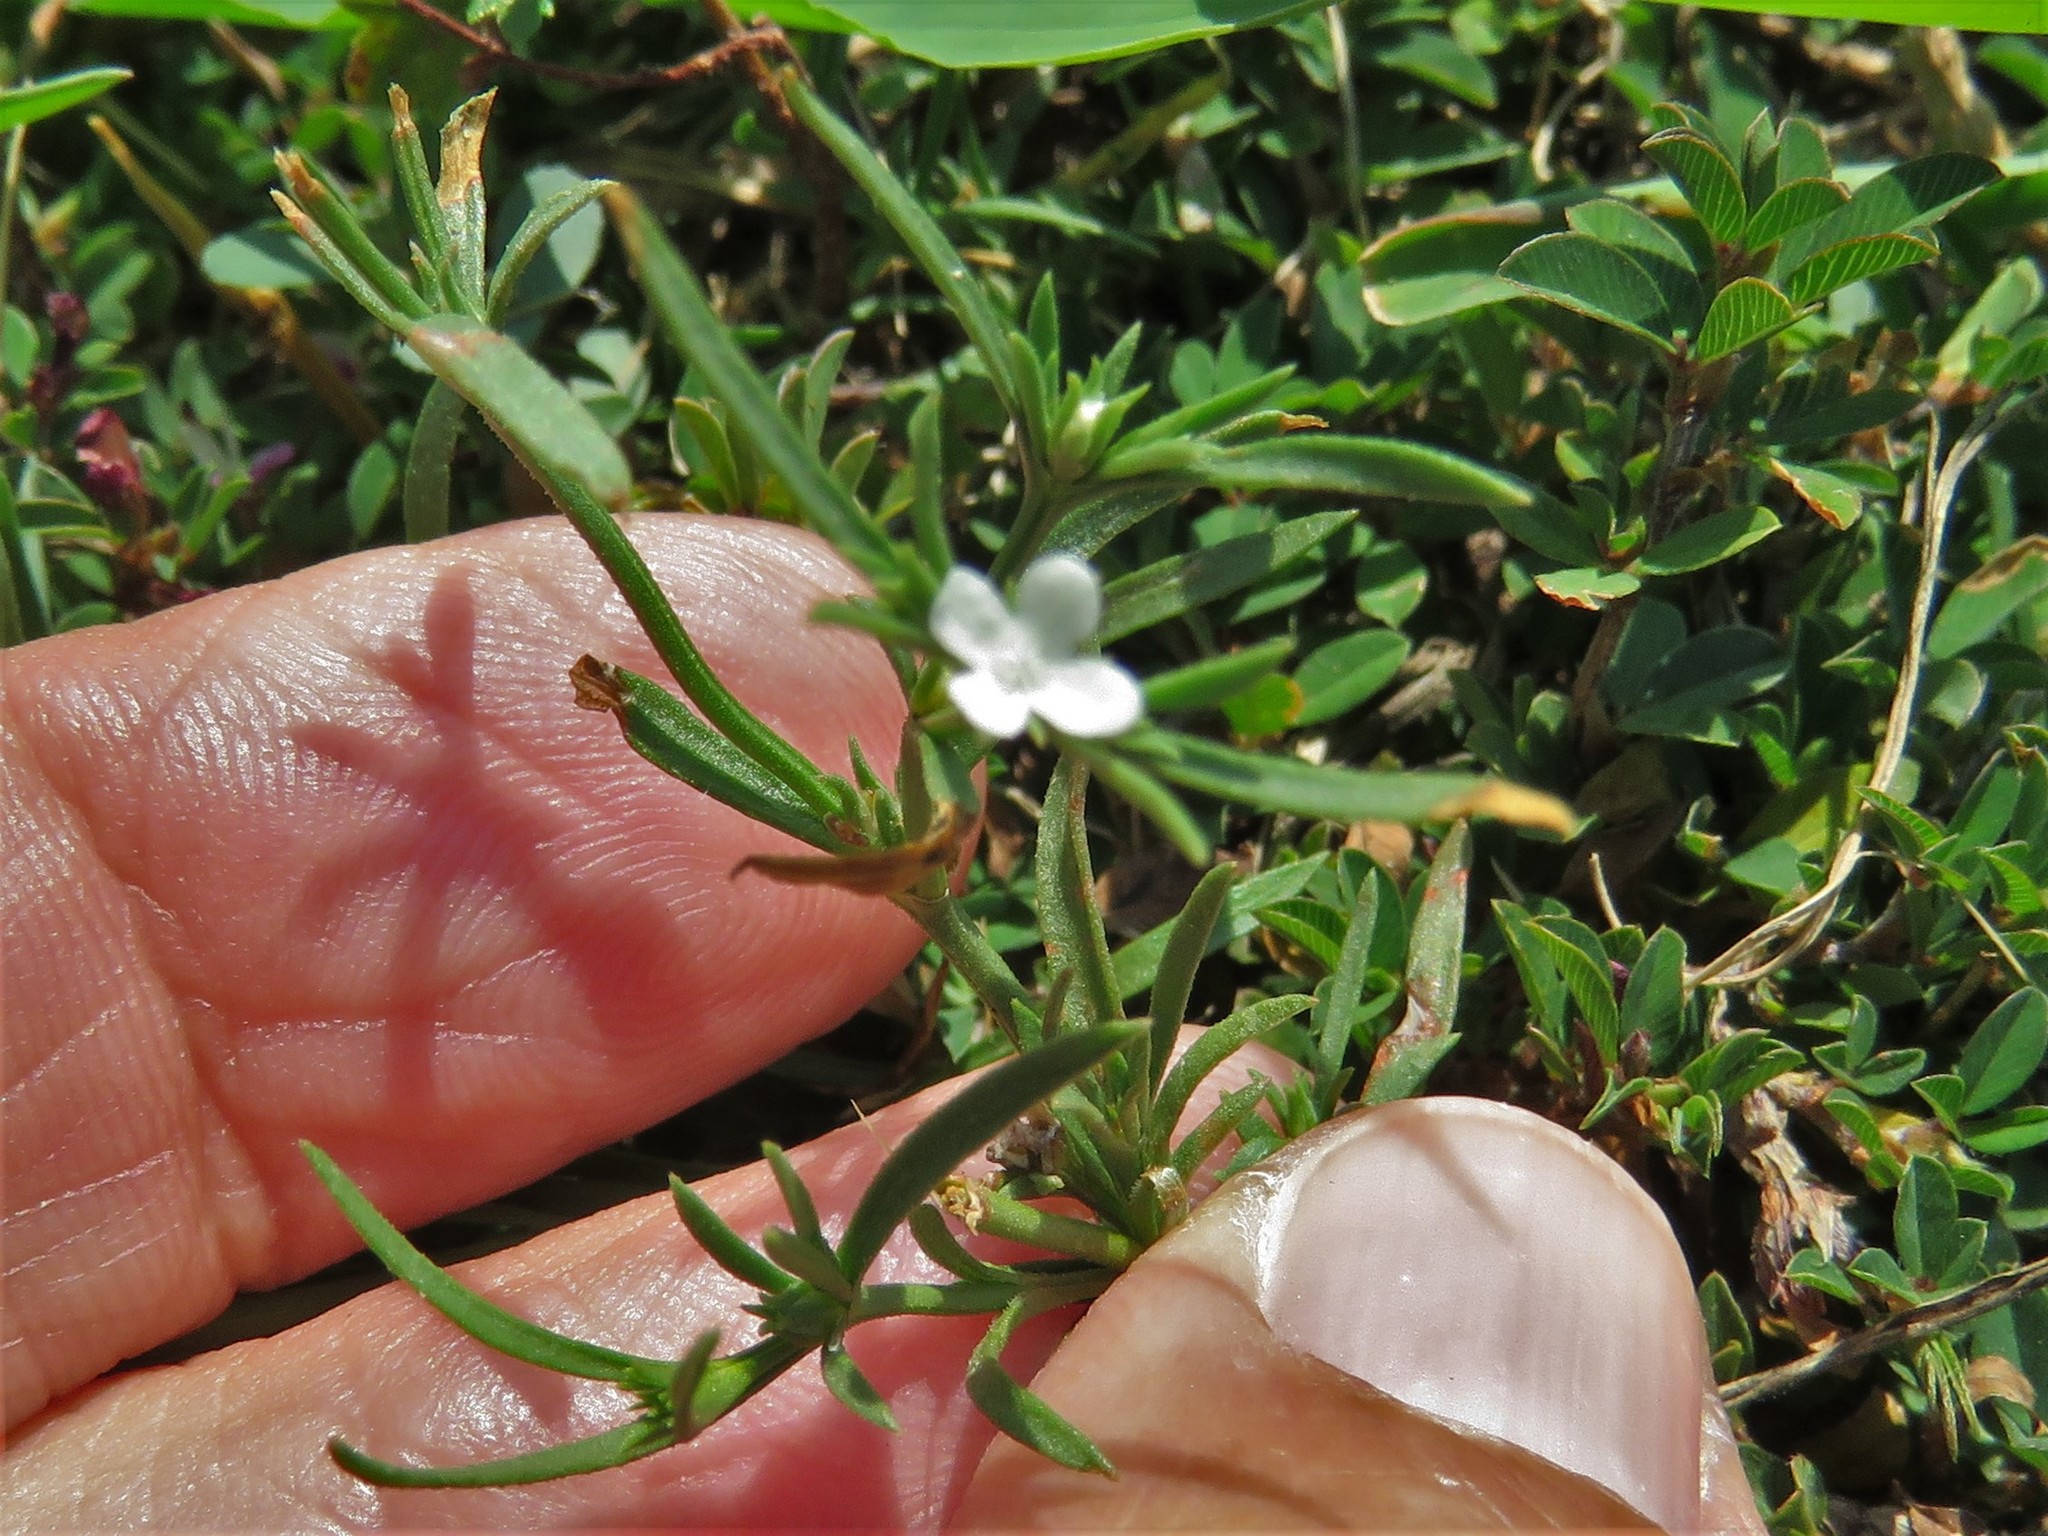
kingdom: Plantae
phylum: Tracheophyta
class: Magnoliopsida
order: Lamiales
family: Tetrachondraceae
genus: Polypremum
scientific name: Polypremum procumbens
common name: Juniper-leaf
